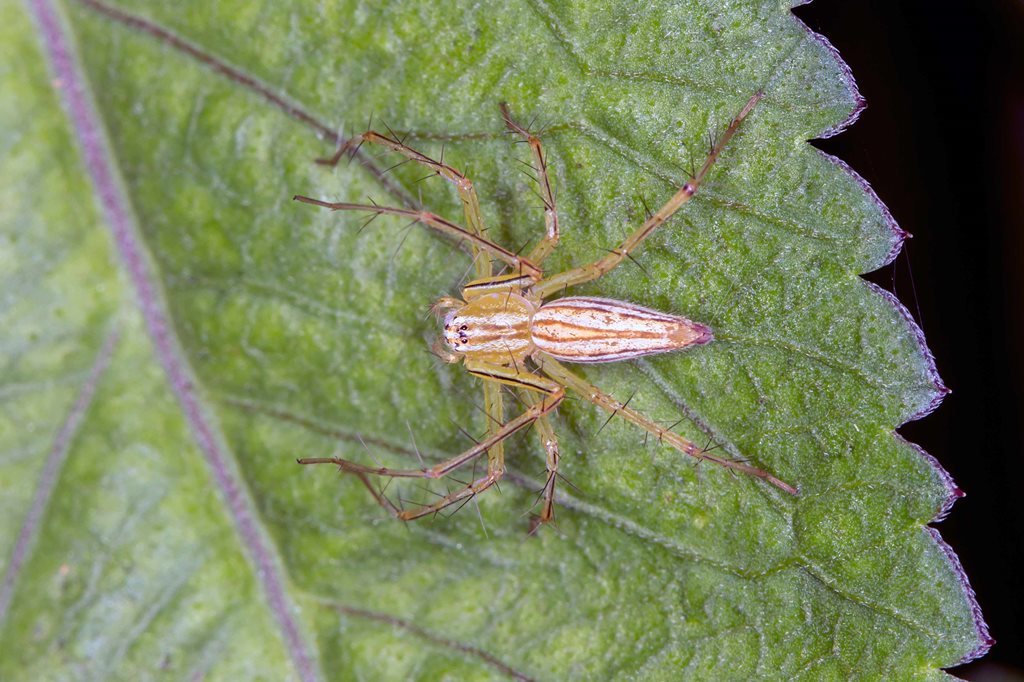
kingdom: Animalia
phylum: Arthropoda
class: Arachnida
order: Araneae
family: Oxyopidae
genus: Oxyopes
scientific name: Oxyopes macilentus
